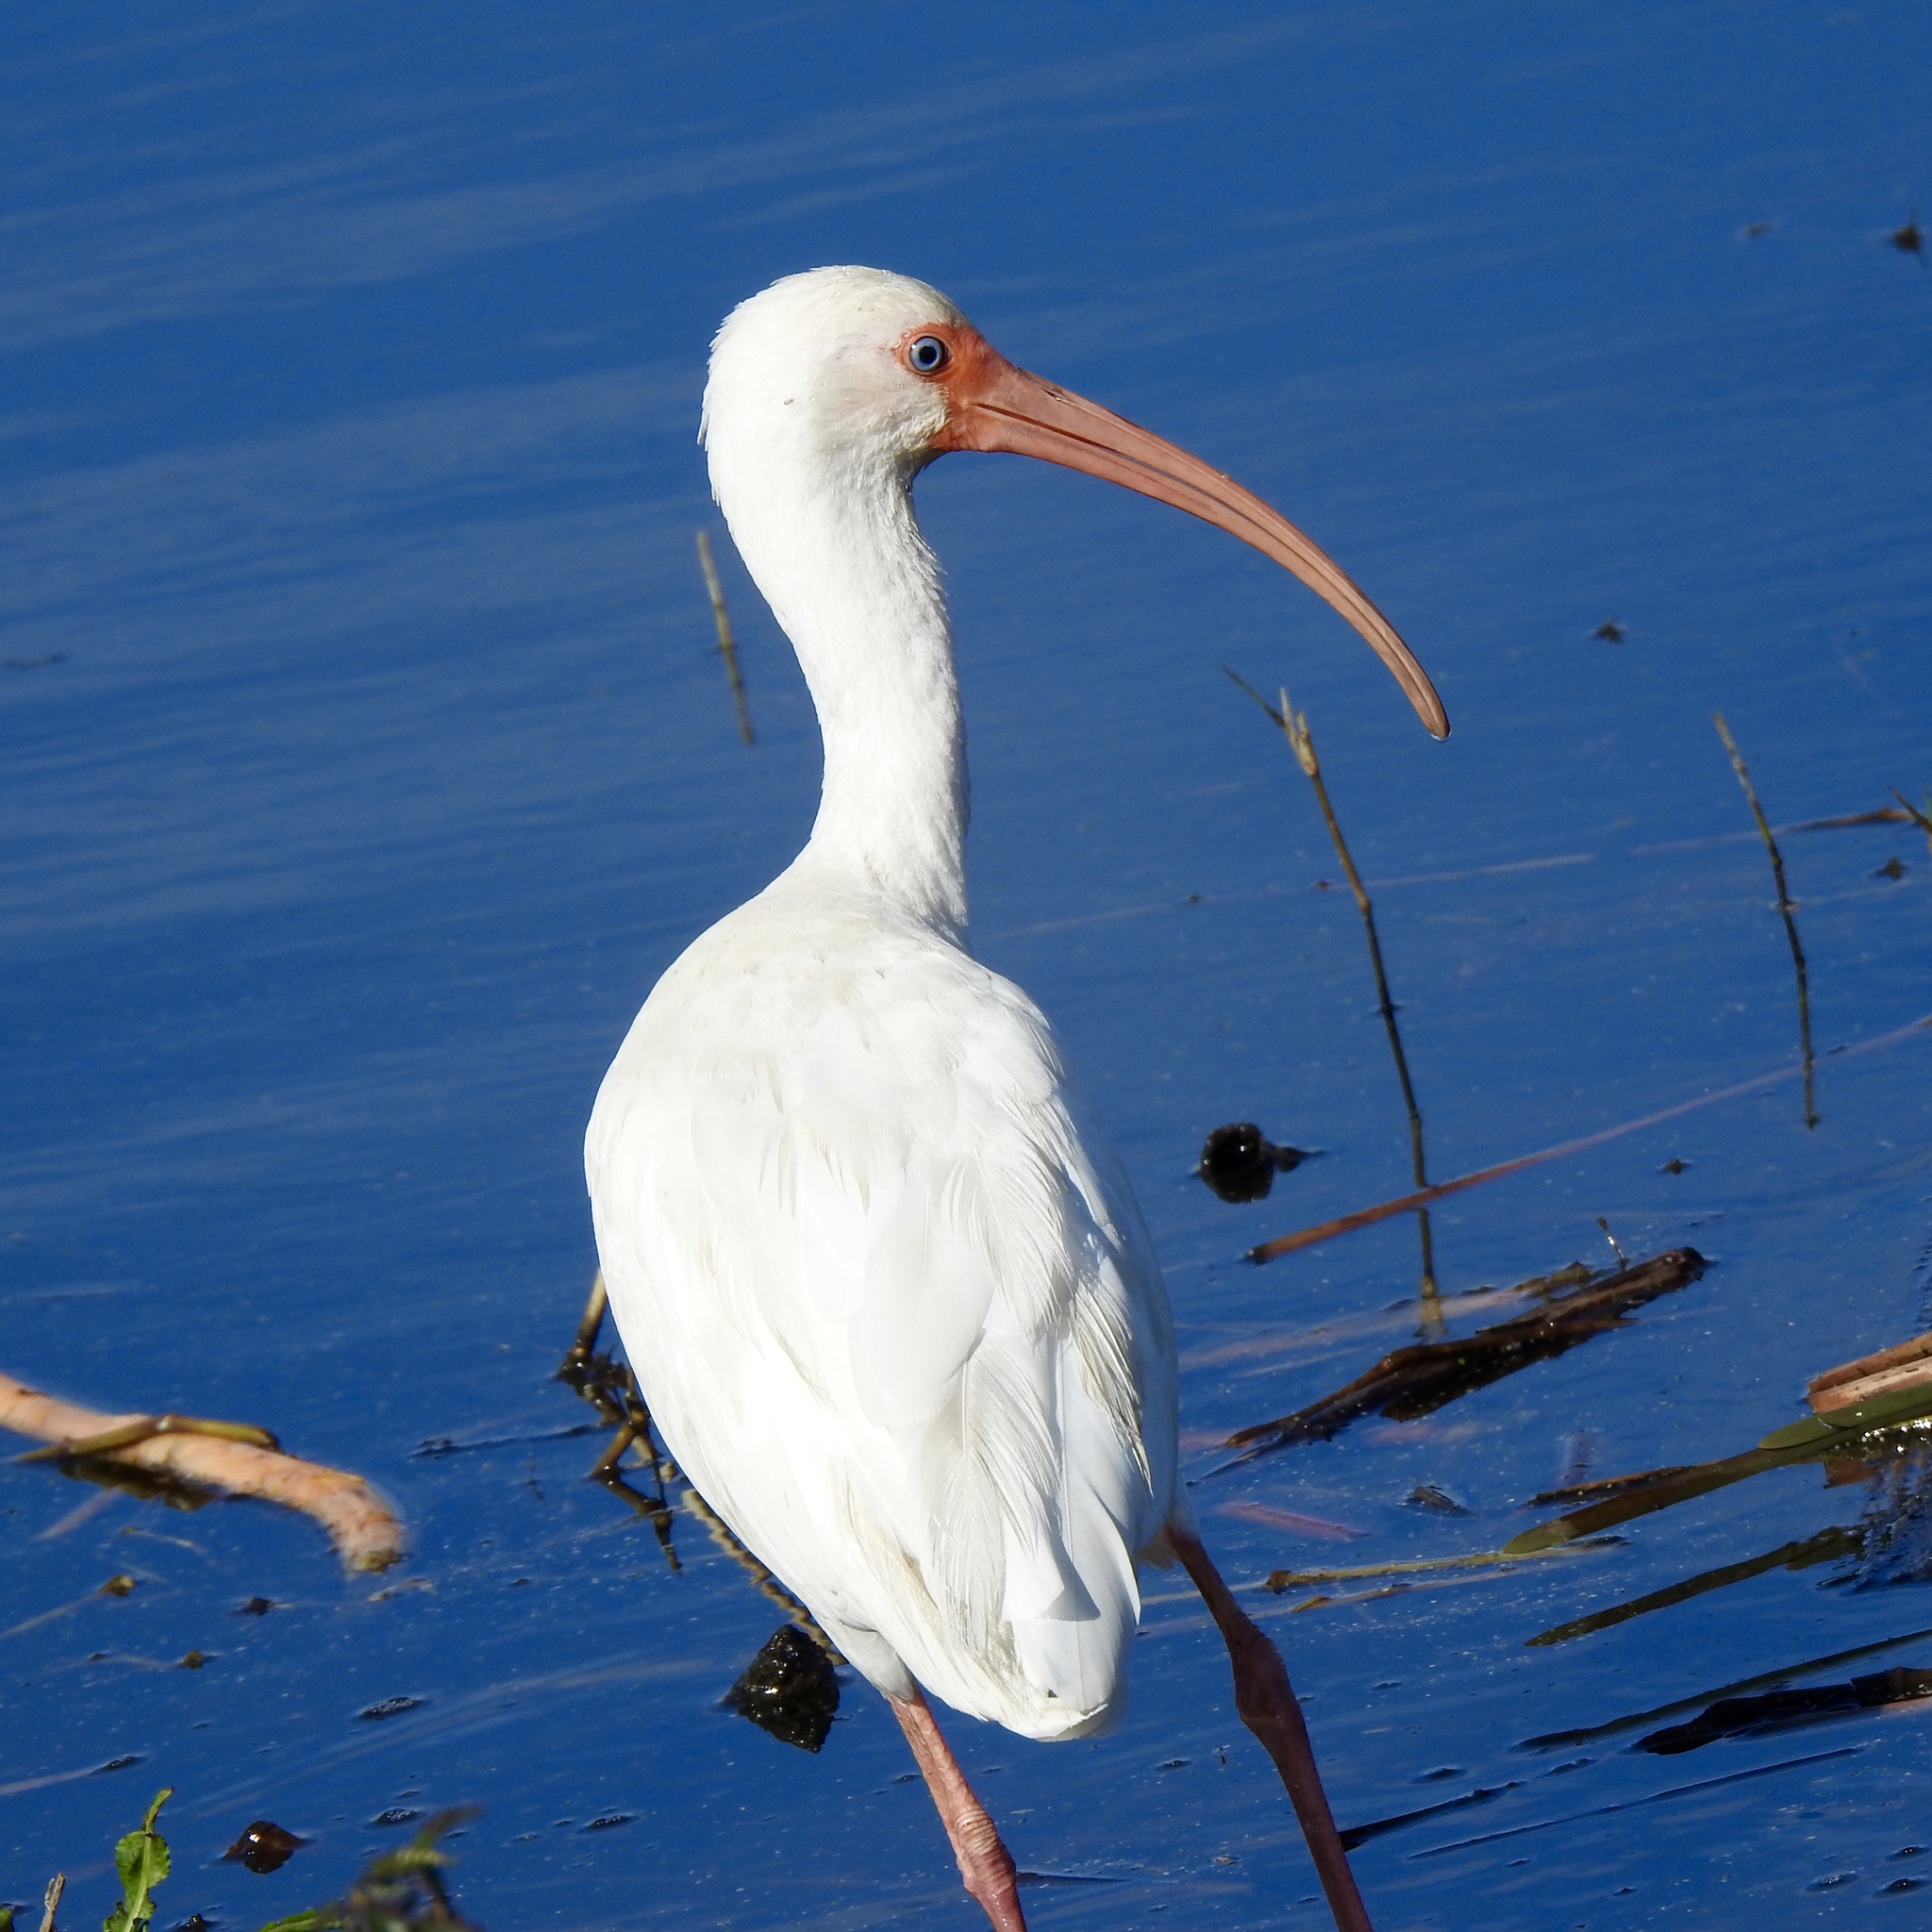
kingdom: Animalia
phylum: Chordata
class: Aves
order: Pelecaniformes
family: Threskiornithidae
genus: Eudocimus
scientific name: Eudocimus albus
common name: White ibis
